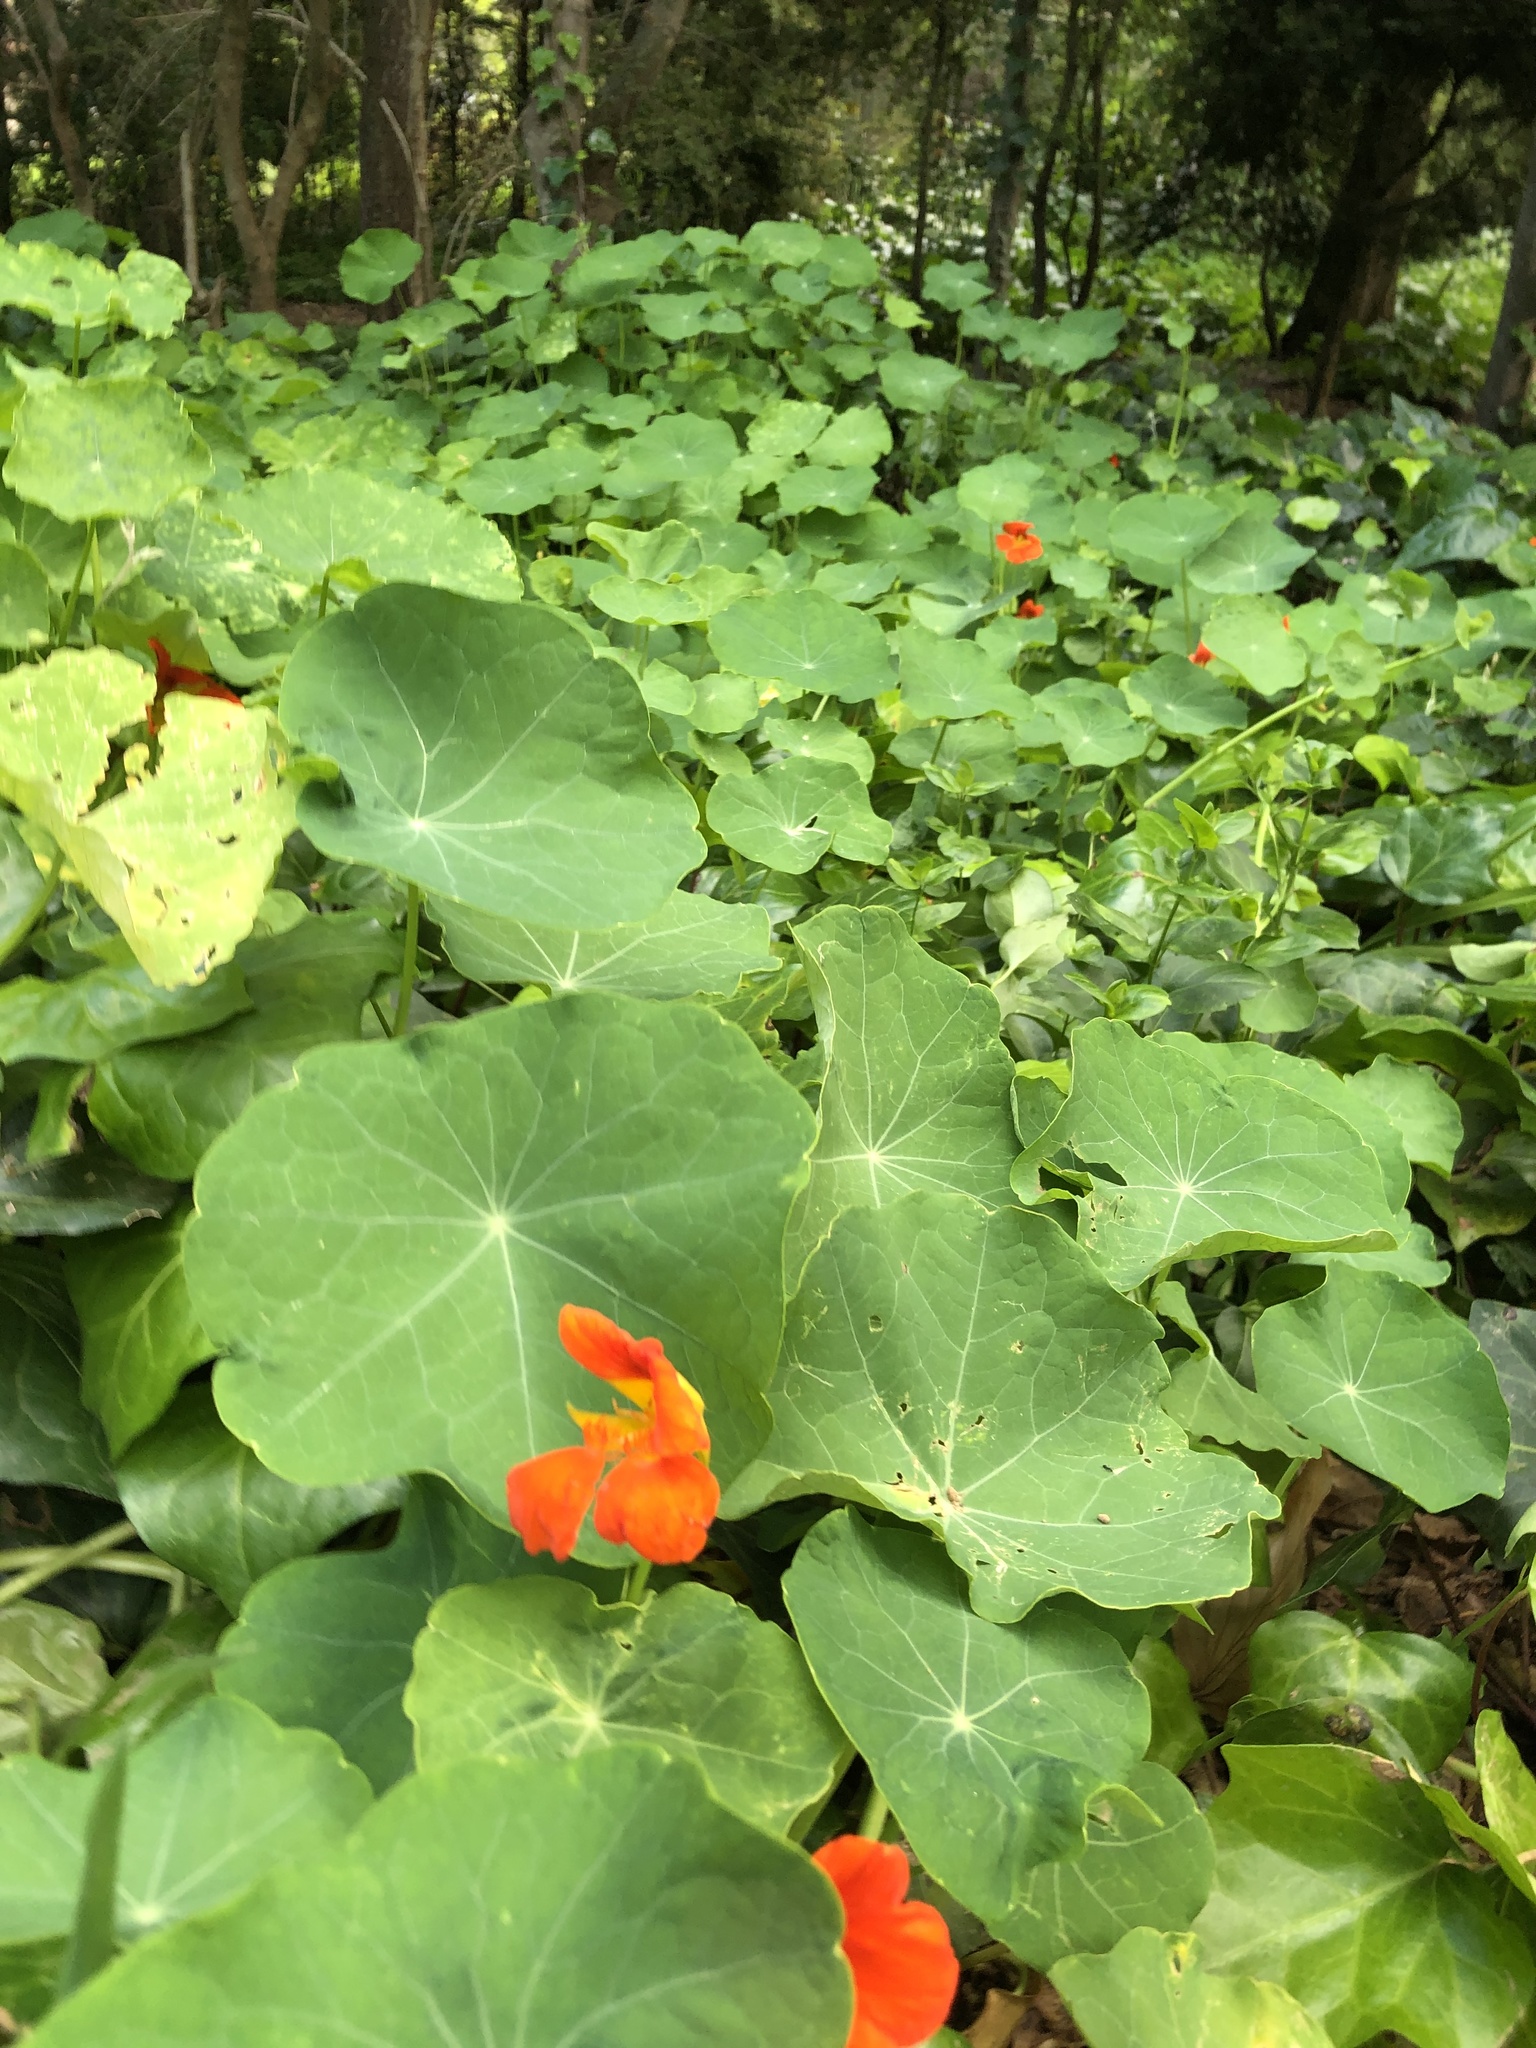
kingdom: Plantae
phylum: Tracheophyta
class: Magnoliopsida
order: Brassicales
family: Tropaeolaceae
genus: Tropaeolum
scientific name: Tropaeolum majus
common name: Nasturtium
